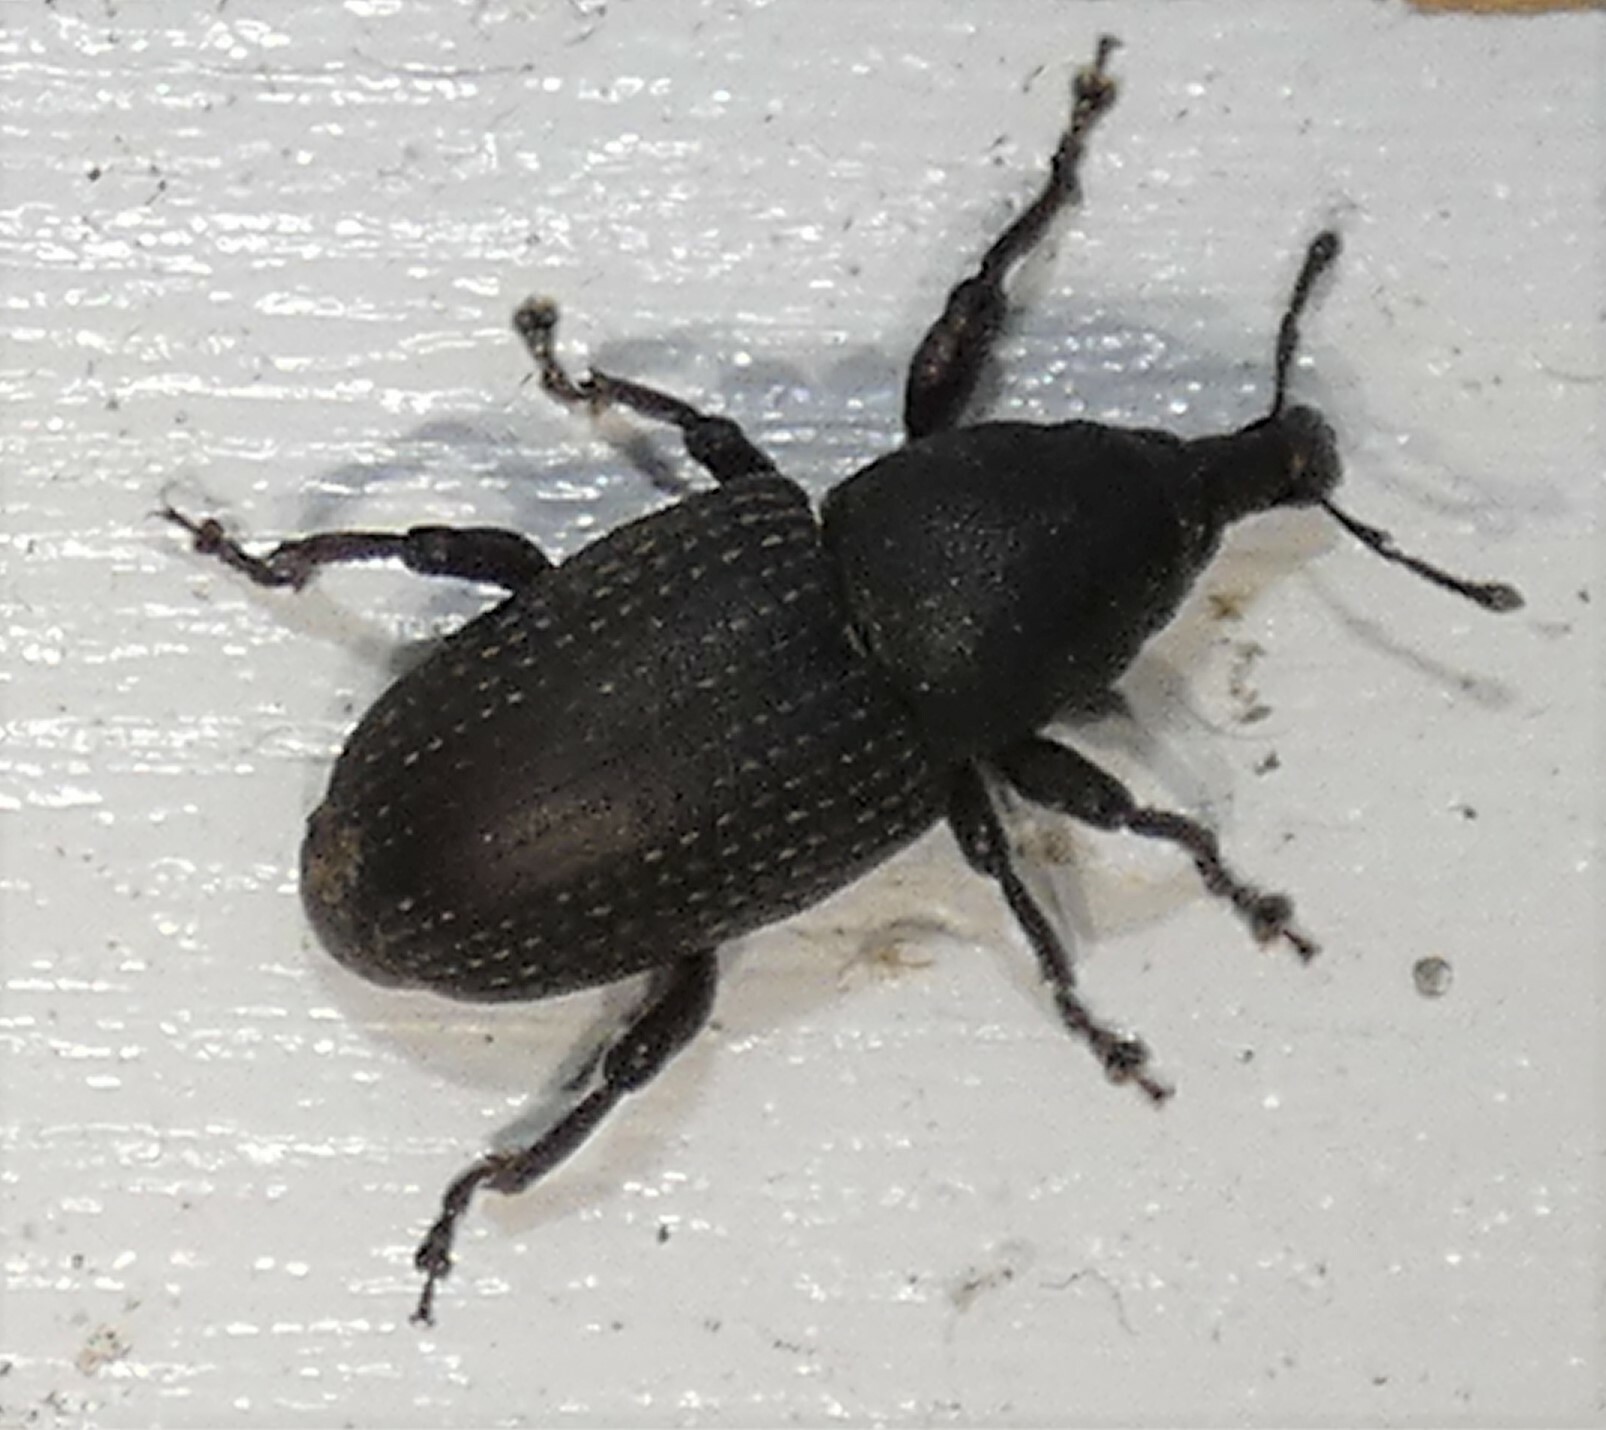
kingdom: Animalia
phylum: Arthropoda
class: Insecta
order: Coleoptera
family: Curculionidae
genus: Pachylobius
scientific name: Pachylobius picivorus
